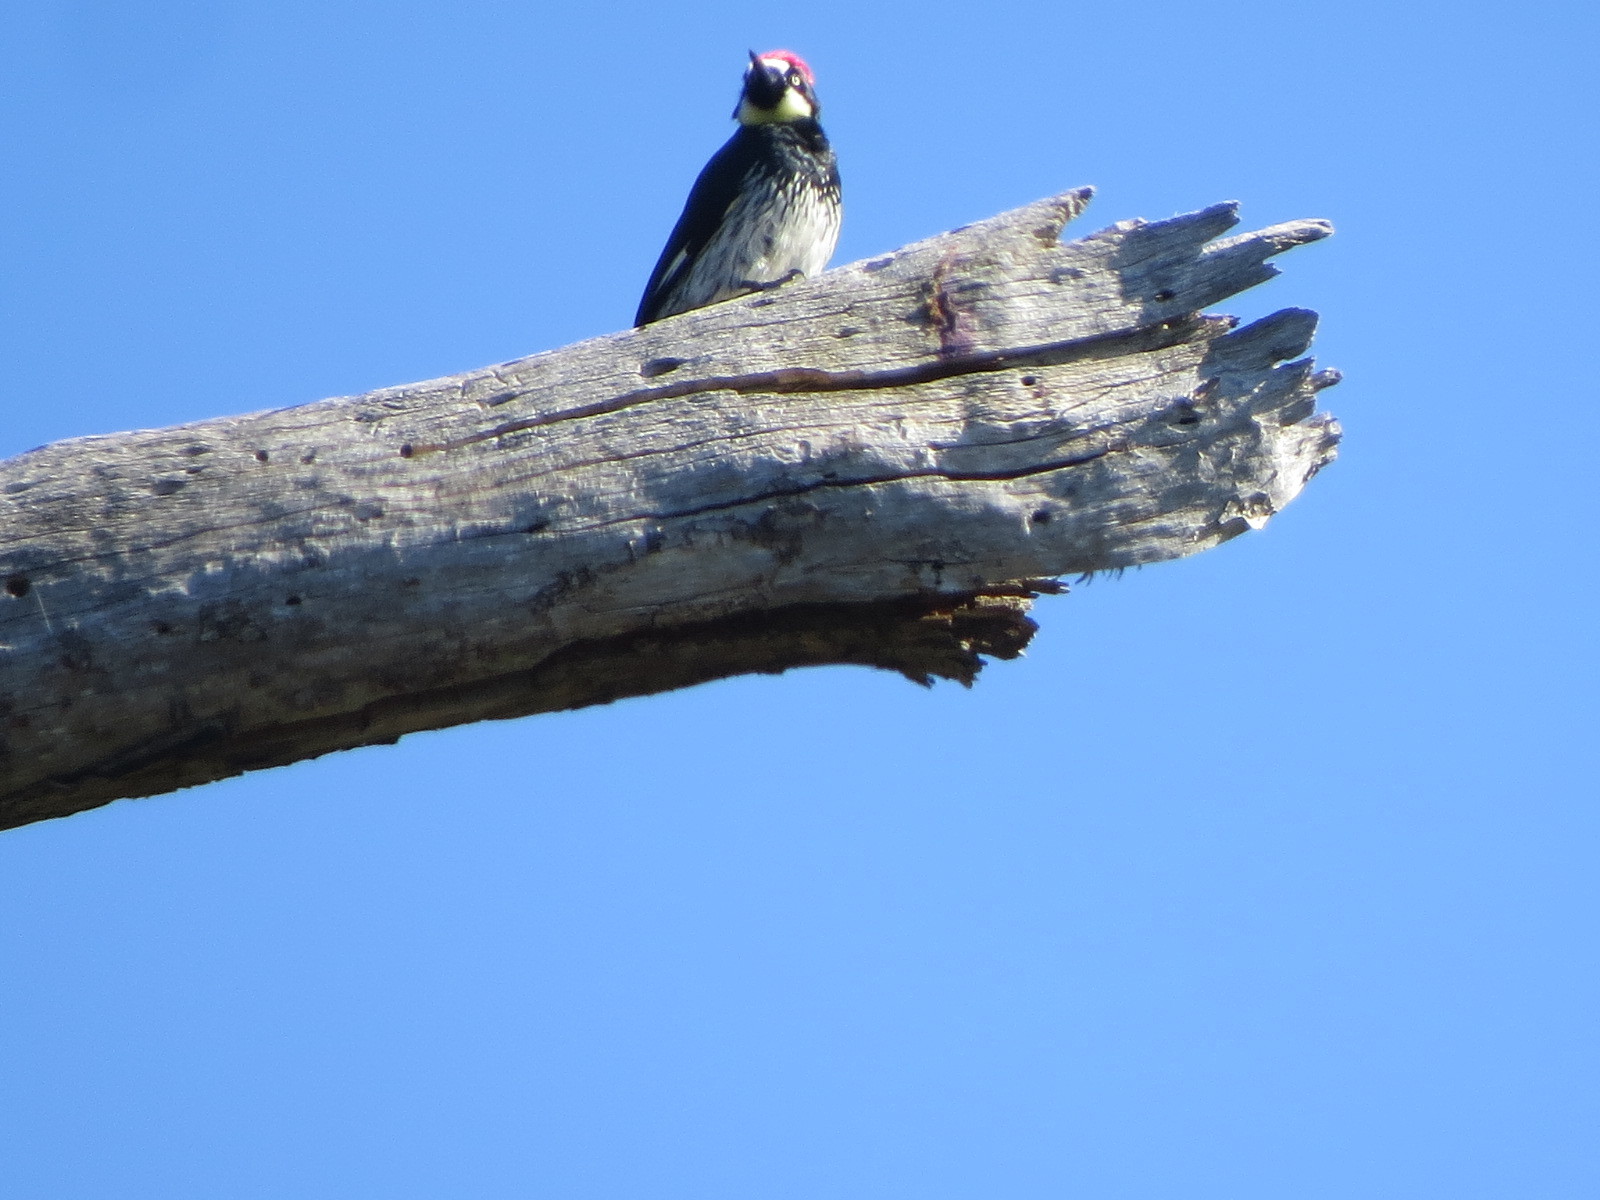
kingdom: Animalia
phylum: Chordata
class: Aves
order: Piciformes
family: Picidae
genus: Melanerpes
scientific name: Melanerpes formicivorus
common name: Acorn woodpecker
